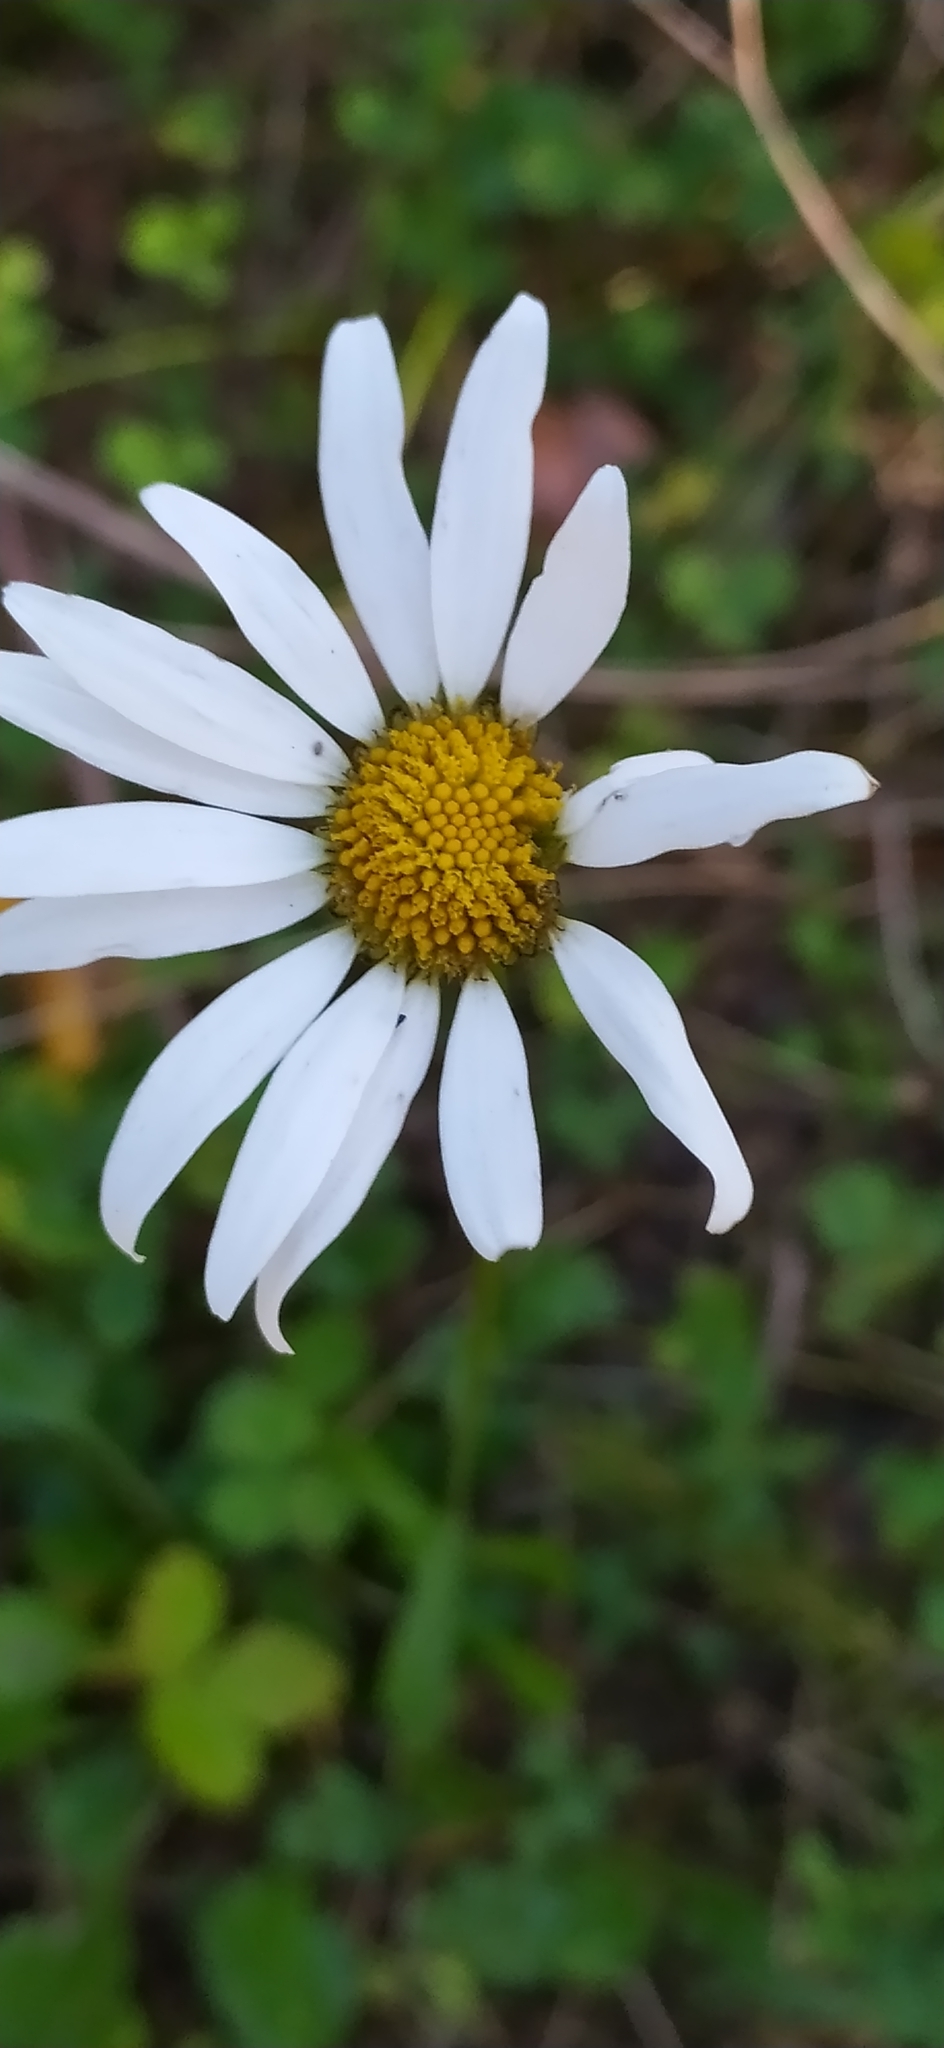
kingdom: Plantae
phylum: Tracheophyta
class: Magnoliopsida
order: Asterales
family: Asteraceae
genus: Leucanthemum
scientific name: Leucanthemum vulgare
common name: Oxeye daisy
